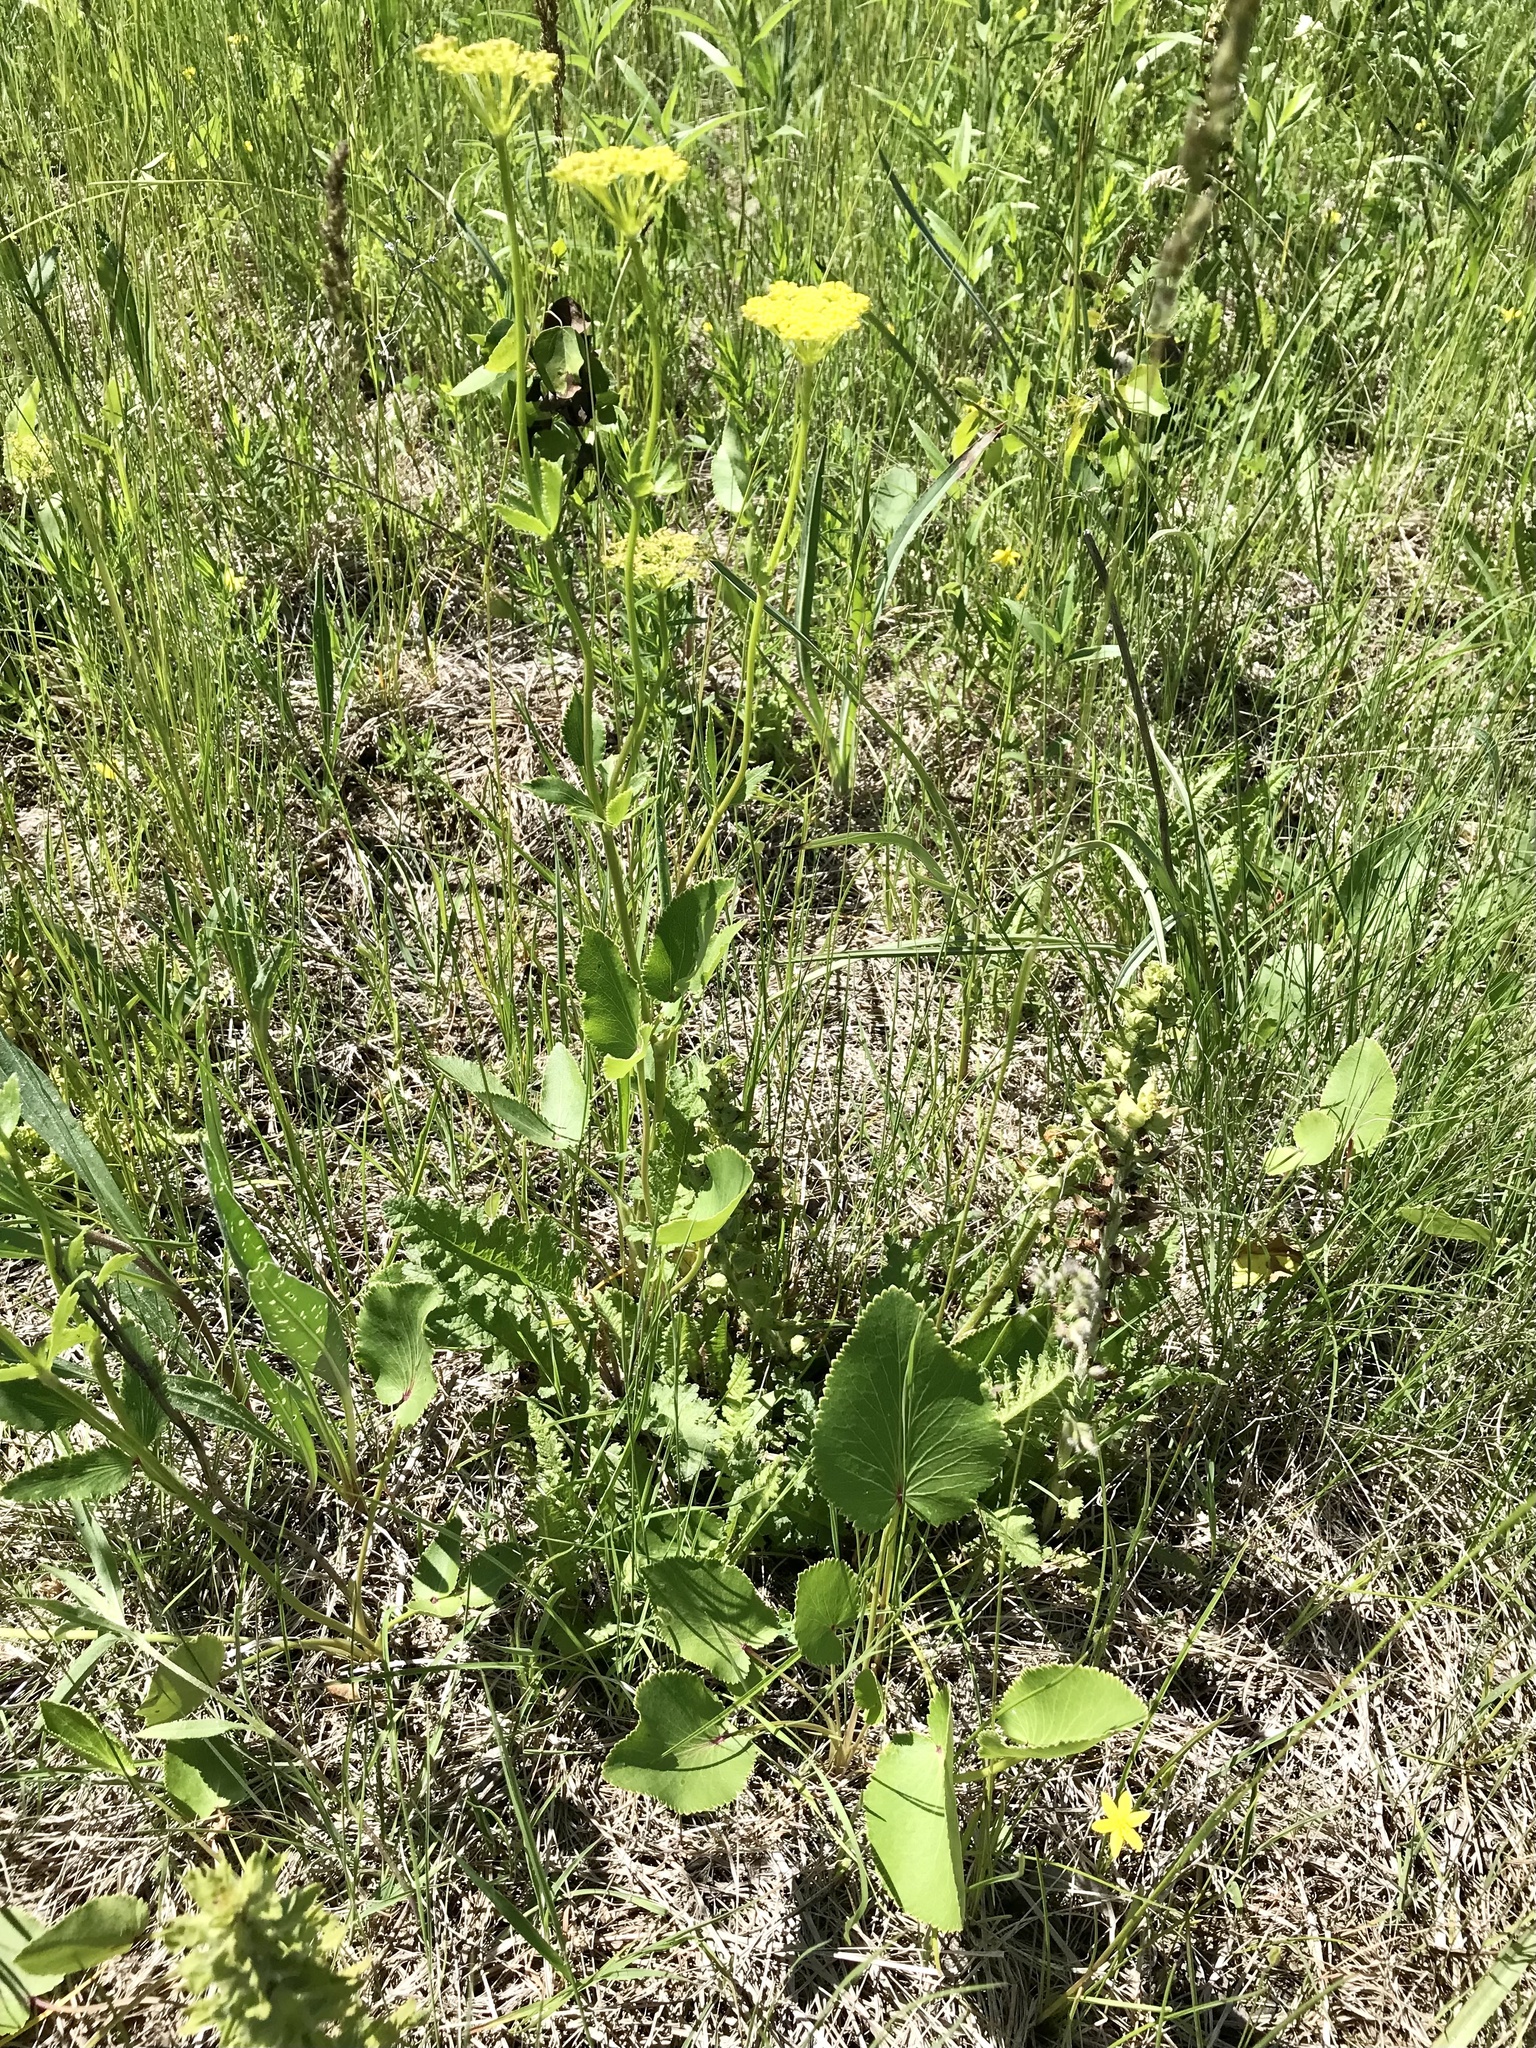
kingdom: Plantae
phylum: Tracheophyta
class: Magnoliopsida
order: Apiales
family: Apiaceae
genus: Zizia
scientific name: Zizia aptera
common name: Heart-leaved alexanders
